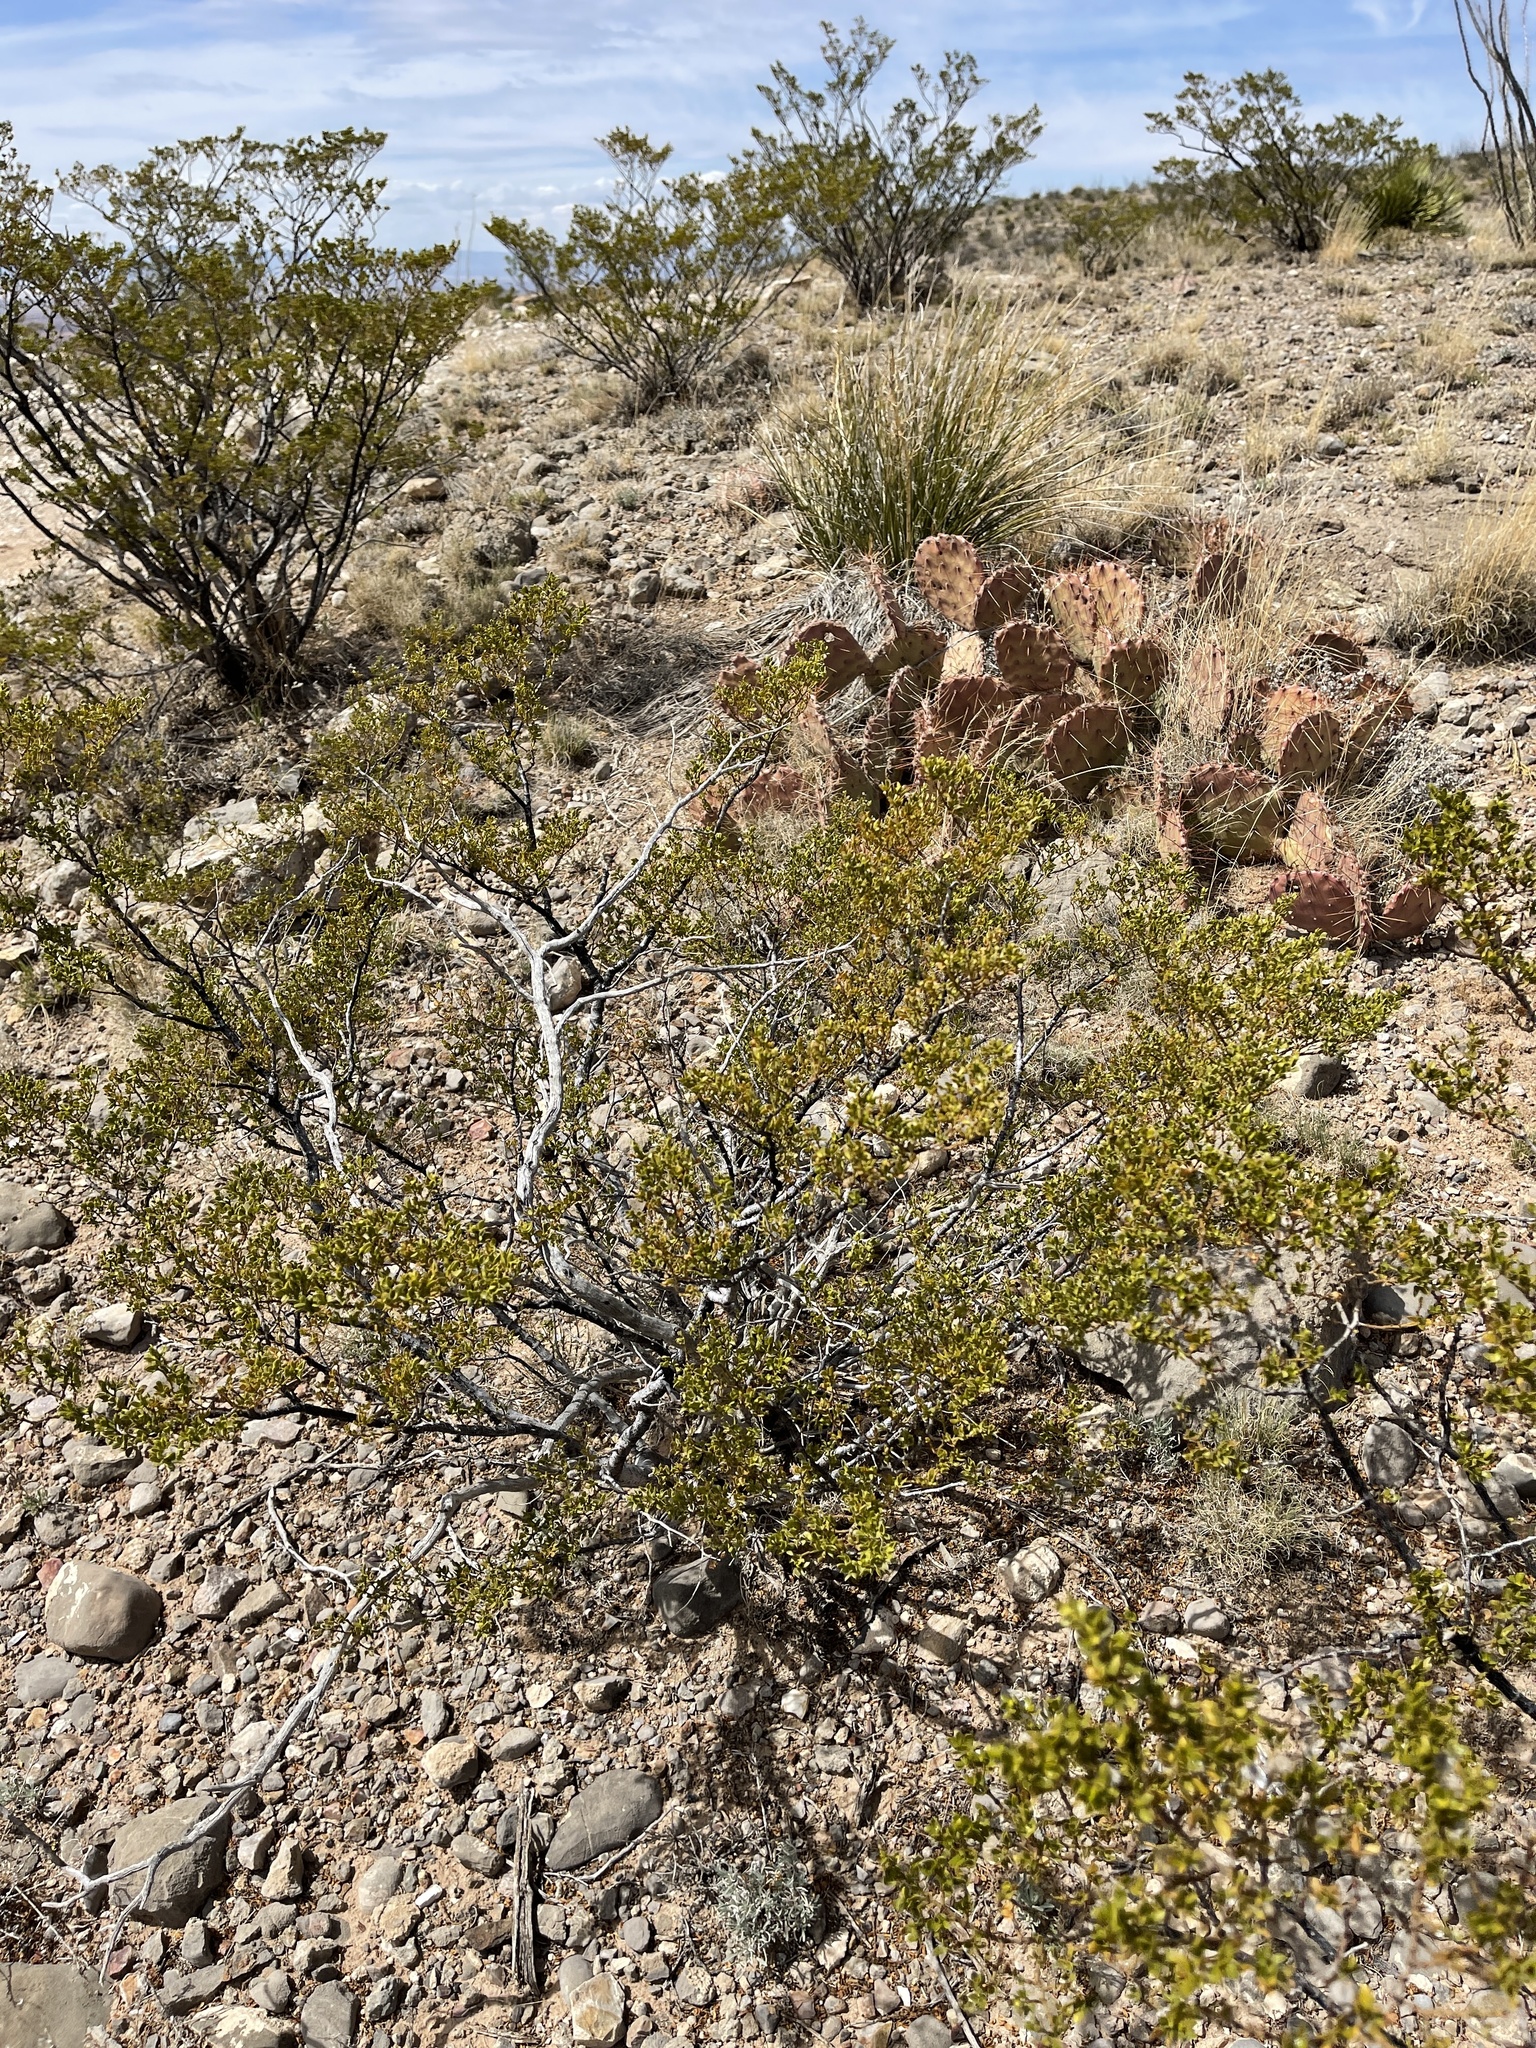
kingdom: Plantae
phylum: Tracheophyta
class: Magnoliopsida
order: Zygophyllales
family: Zygophyllaceae
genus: Larrea
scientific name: Larrea tridentata
